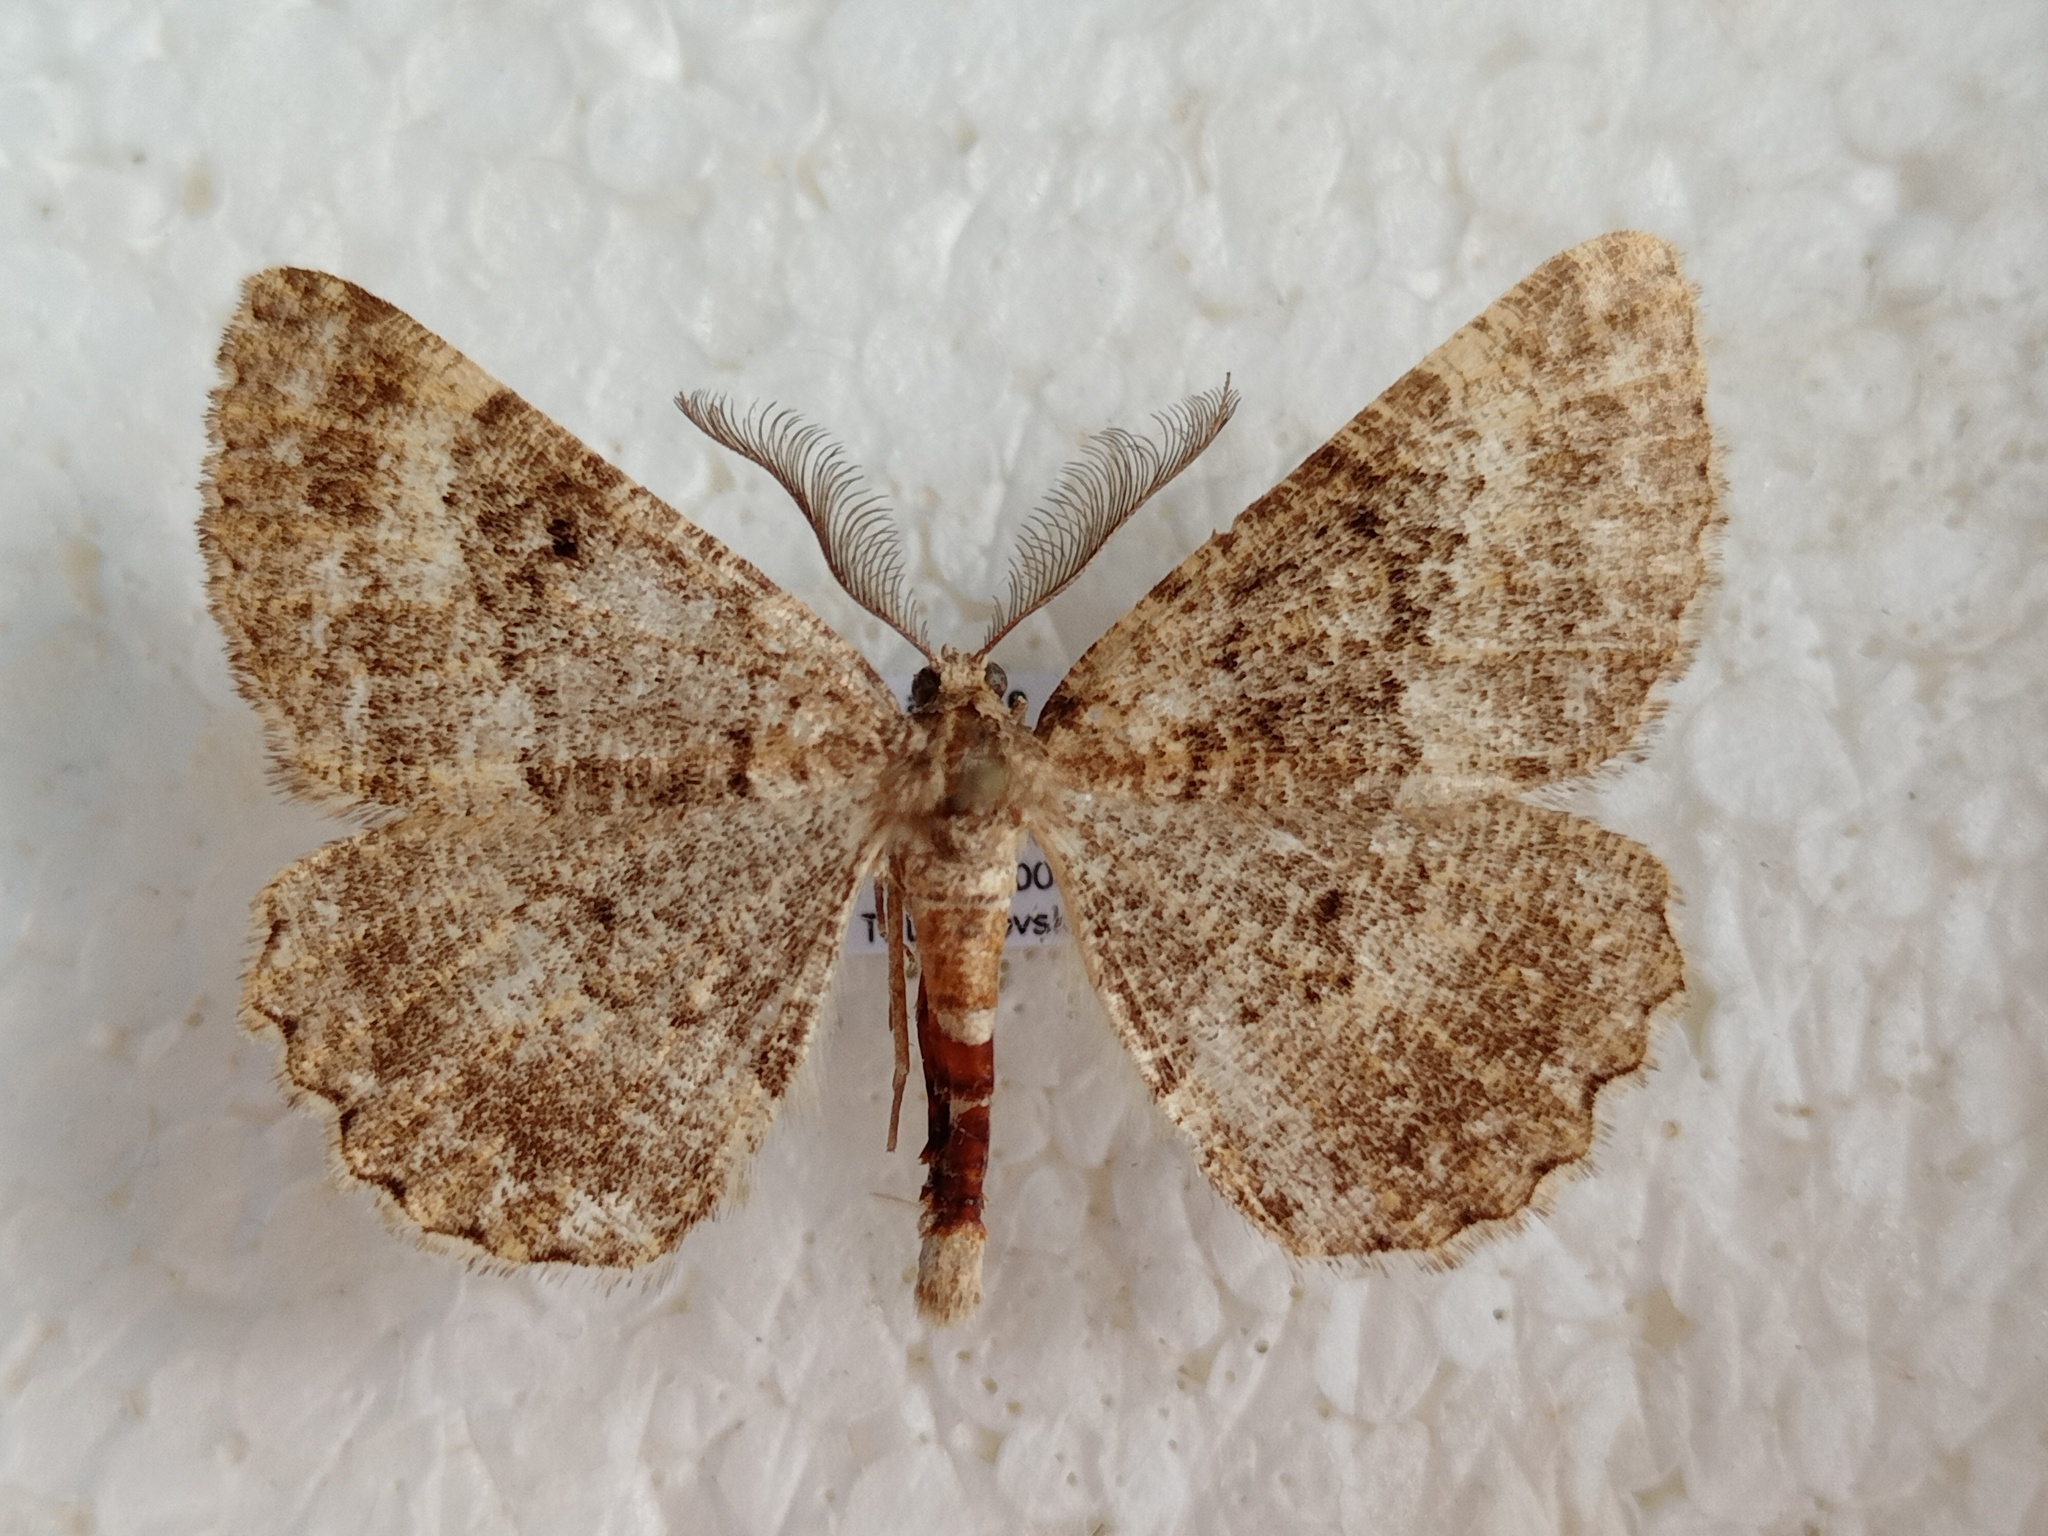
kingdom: Animalia
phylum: Arthropoda
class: Insecta
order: Lepidoptera
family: Geometridae
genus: Selidosema
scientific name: Selidosema taeniolaria
